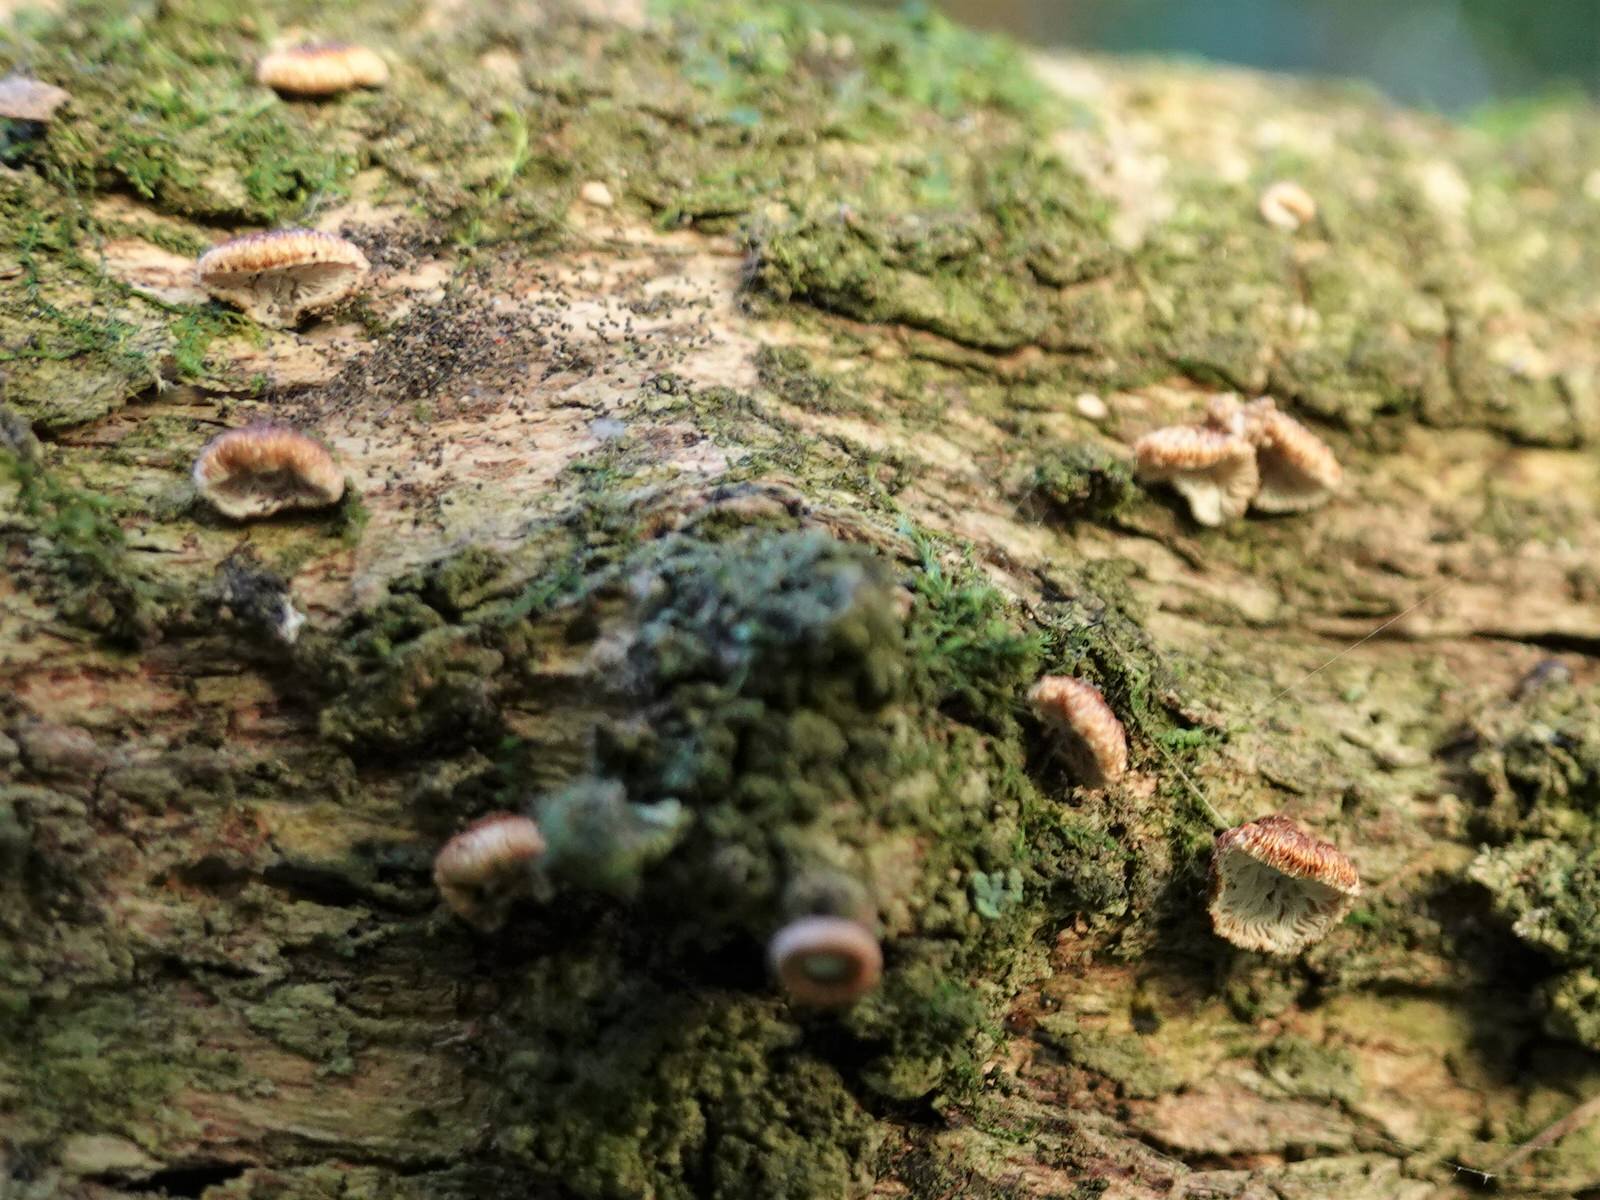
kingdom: Fungi
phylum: Basidiomycota
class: Agaricomycetes
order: Agaricales
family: Marasmiaceae
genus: Chaetocalathus
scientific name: Chaetocalathus cocciformis
